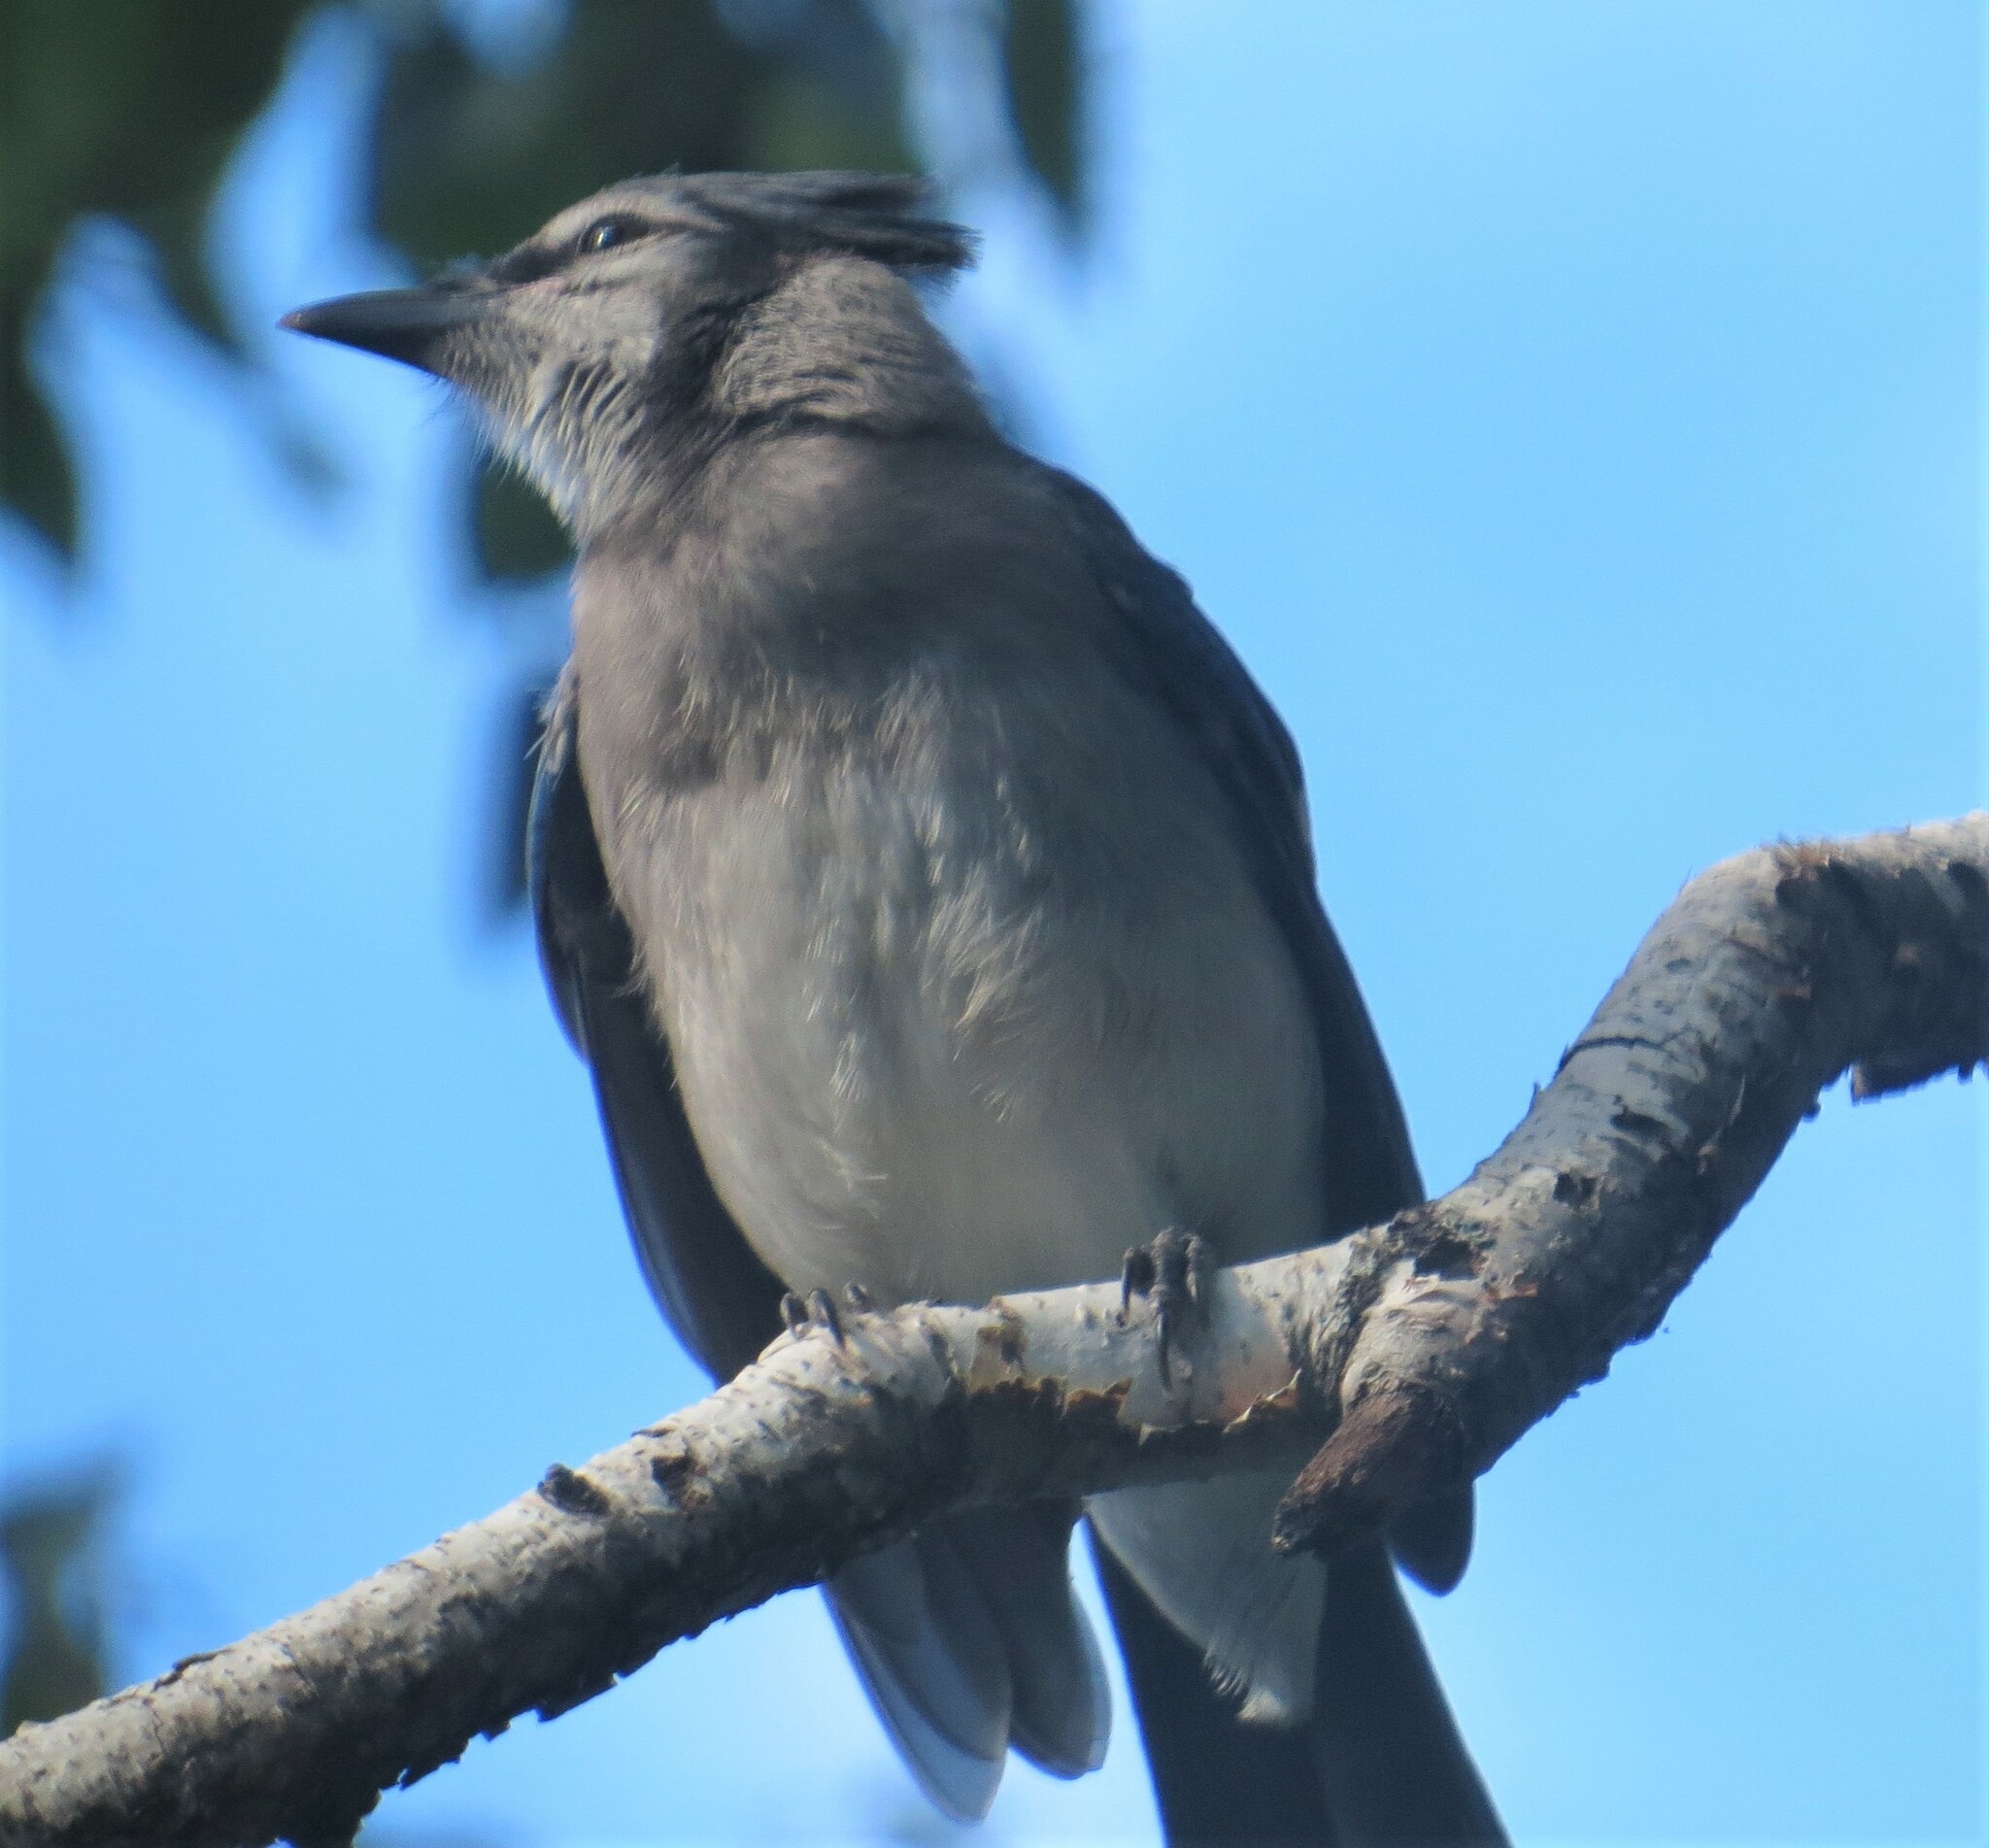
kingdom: Animalia
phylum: Chordata
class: Aves
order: Passeriformes
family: Corvidae
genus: Cyanocitta
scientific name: Cyanocitta cristata
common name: Blue jay
